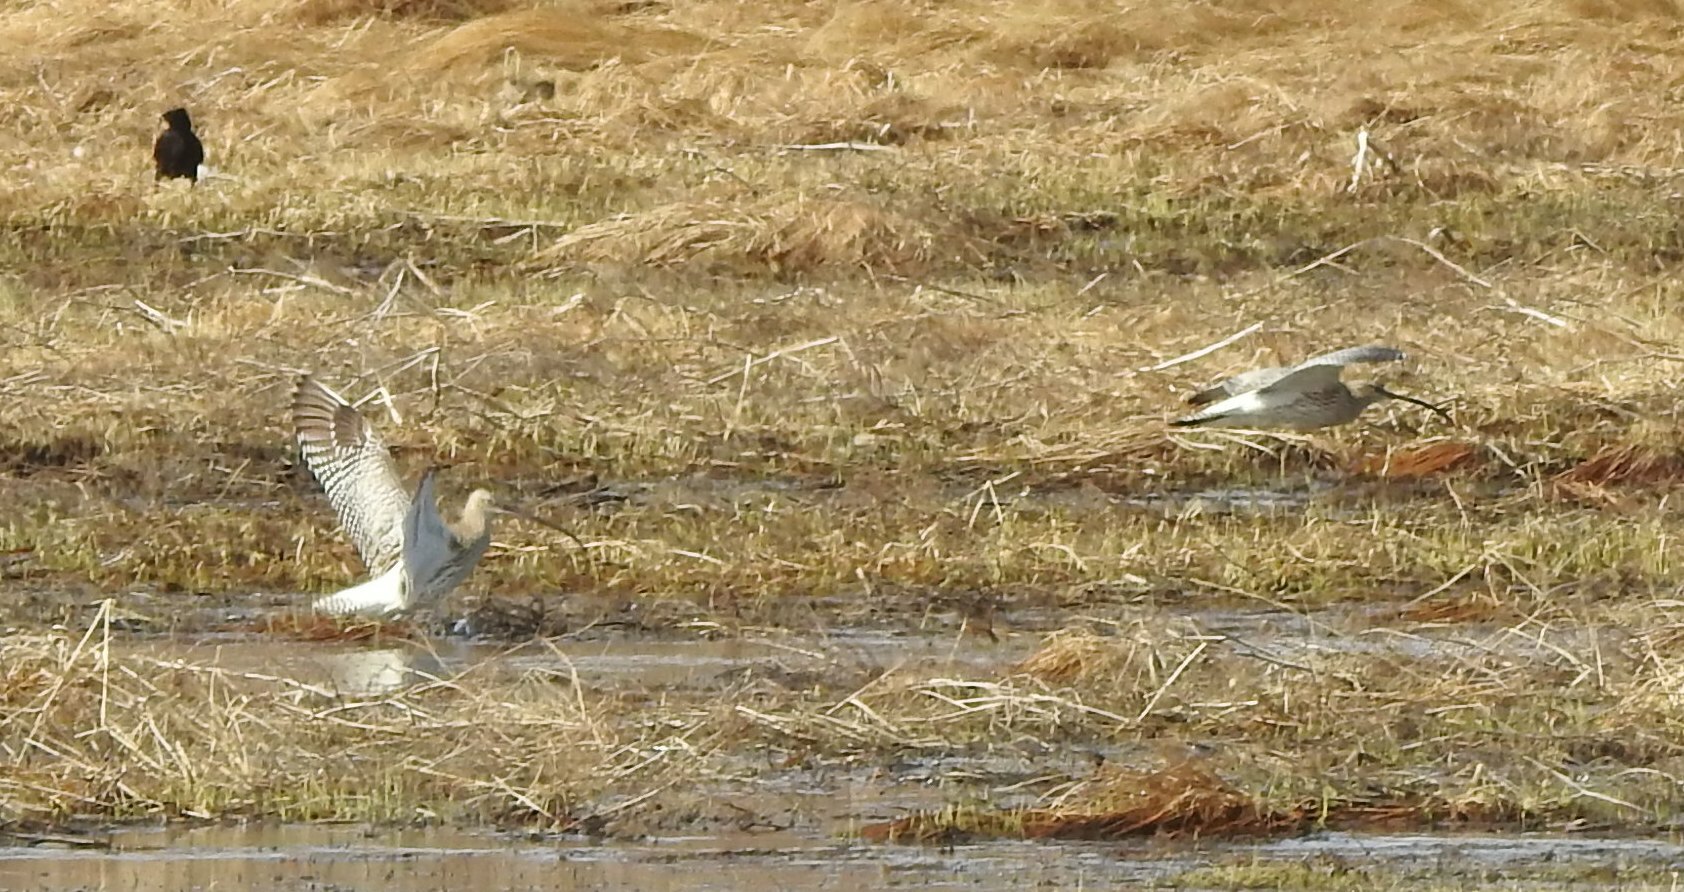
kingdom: Animalia
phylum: Chordata
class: Aves
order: Charadriiformes
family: Scolopacidae
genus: Numenius
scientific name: Numenius arquata
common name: Eurasian curlew
